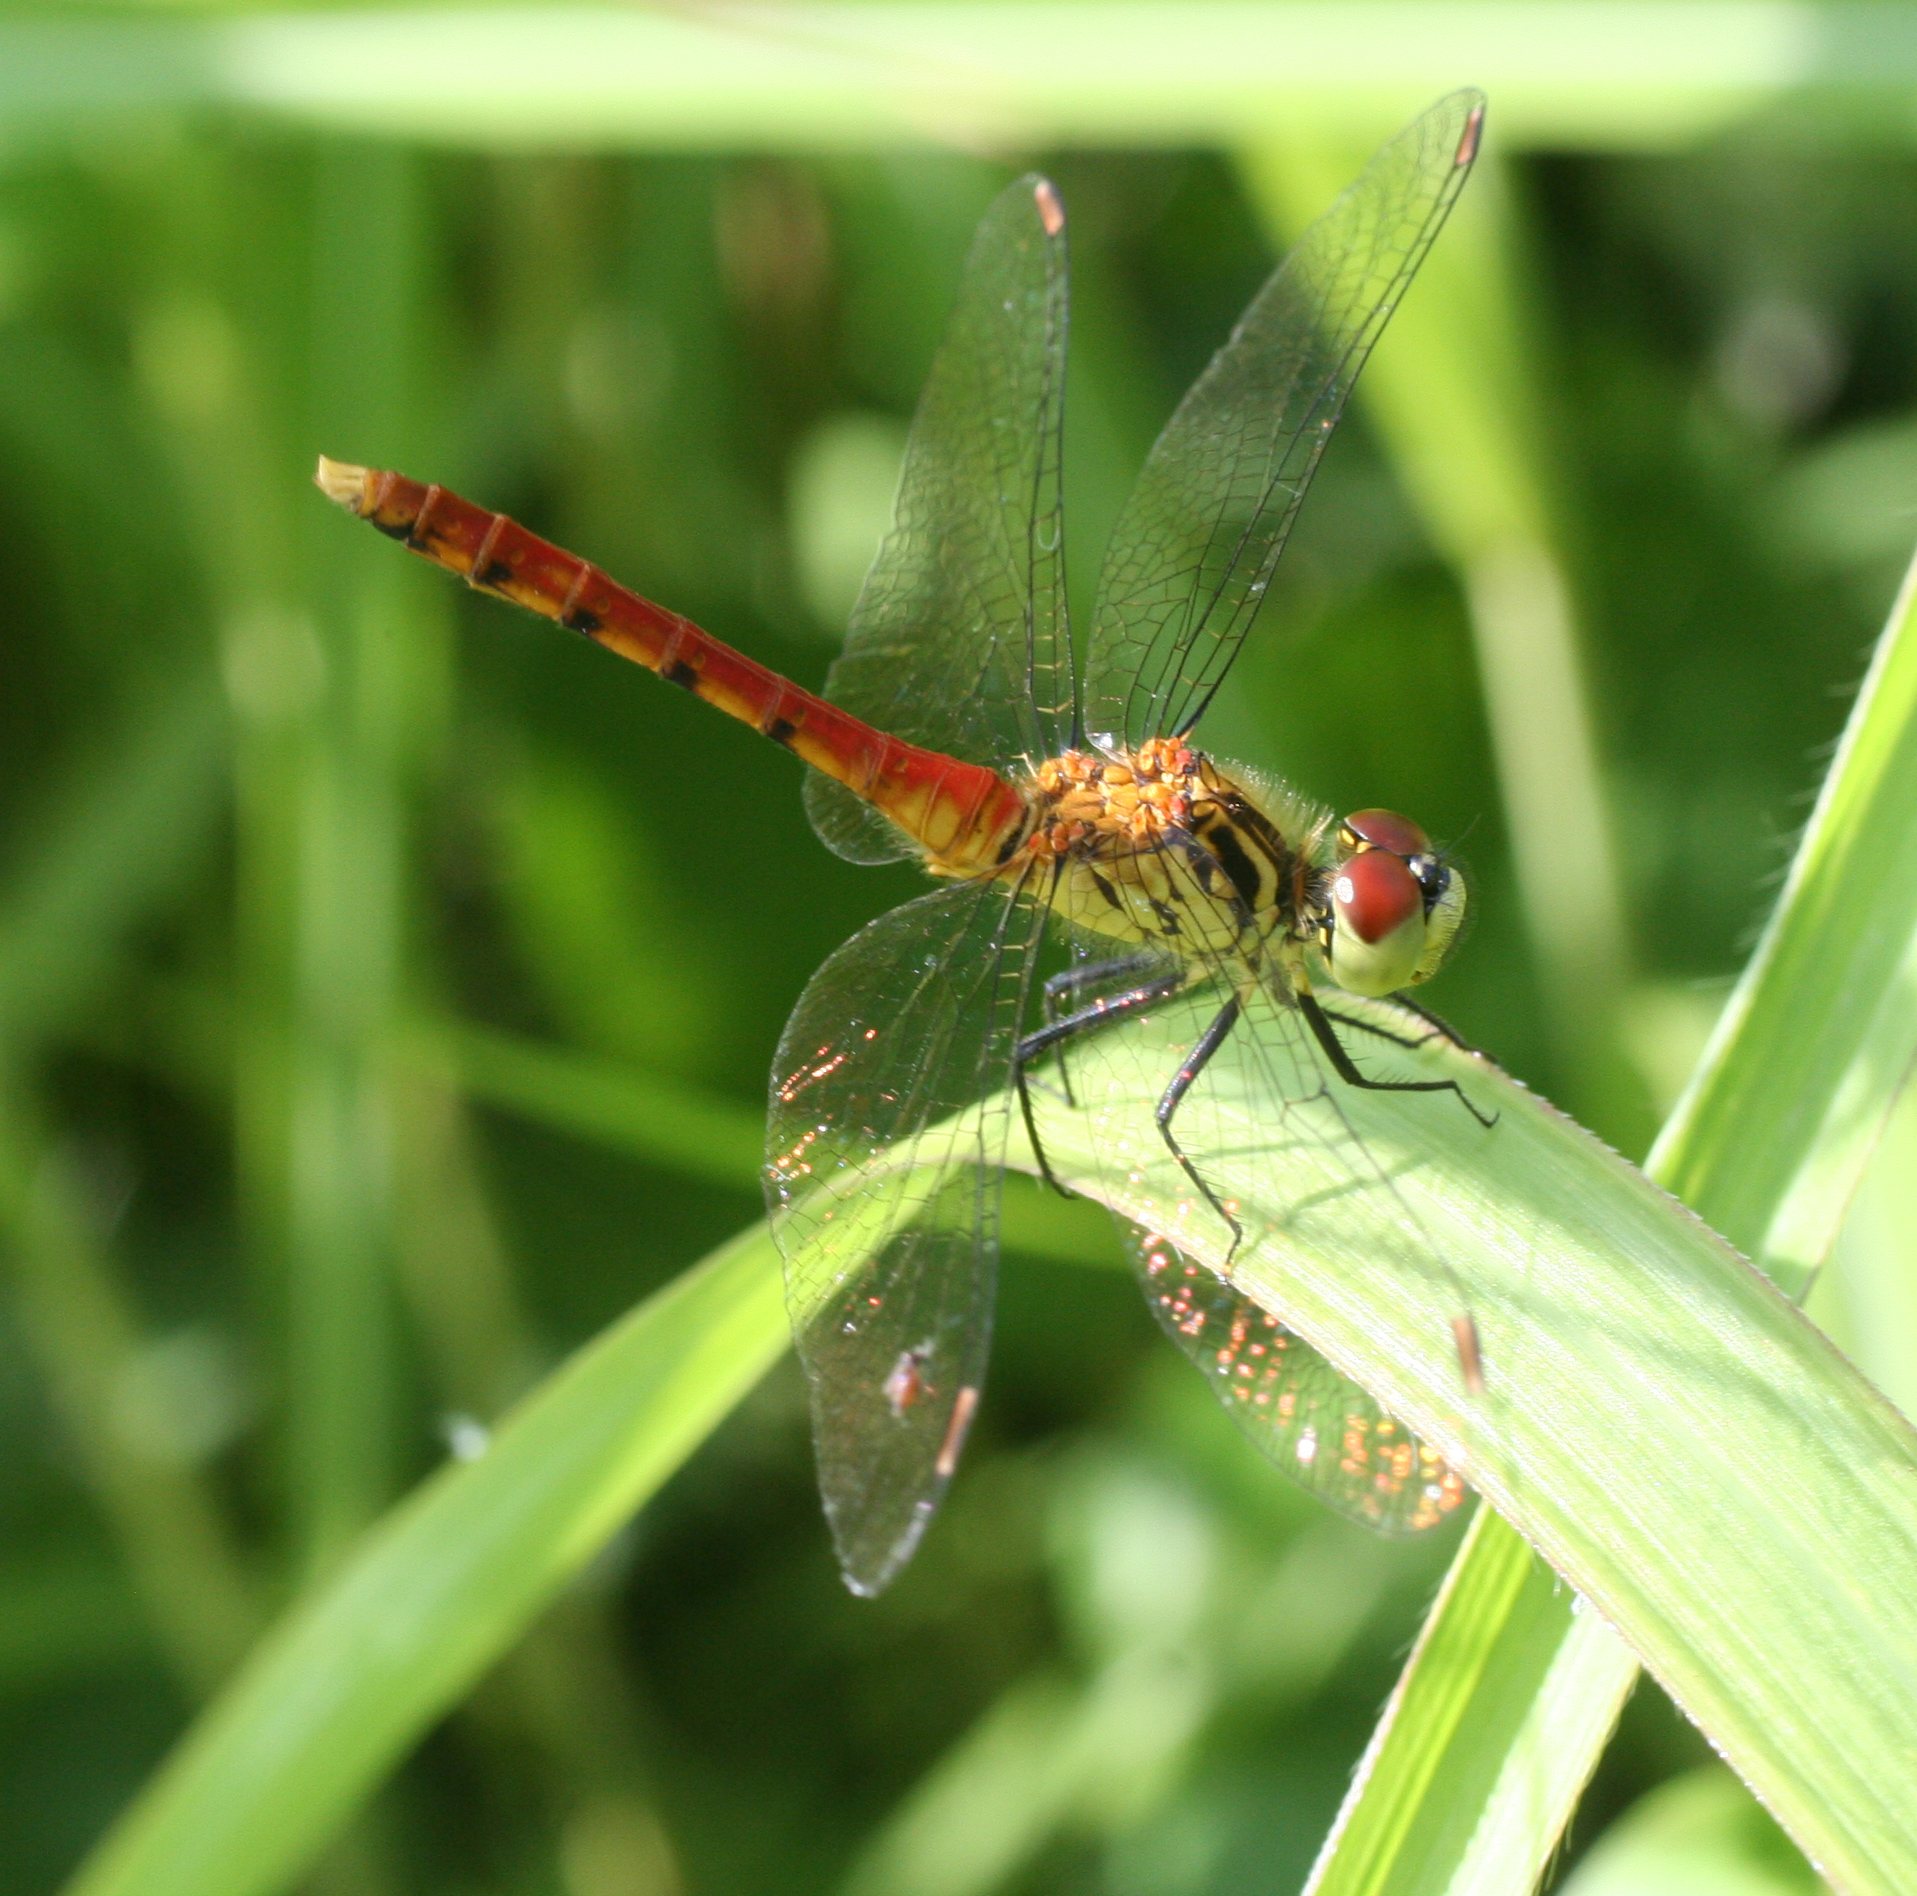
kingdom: Animalia
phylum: Arthropoda
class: Insecta
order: Odonata
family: Libellulidae
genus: Sympetrum
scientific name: Sympetrum kunckeli
